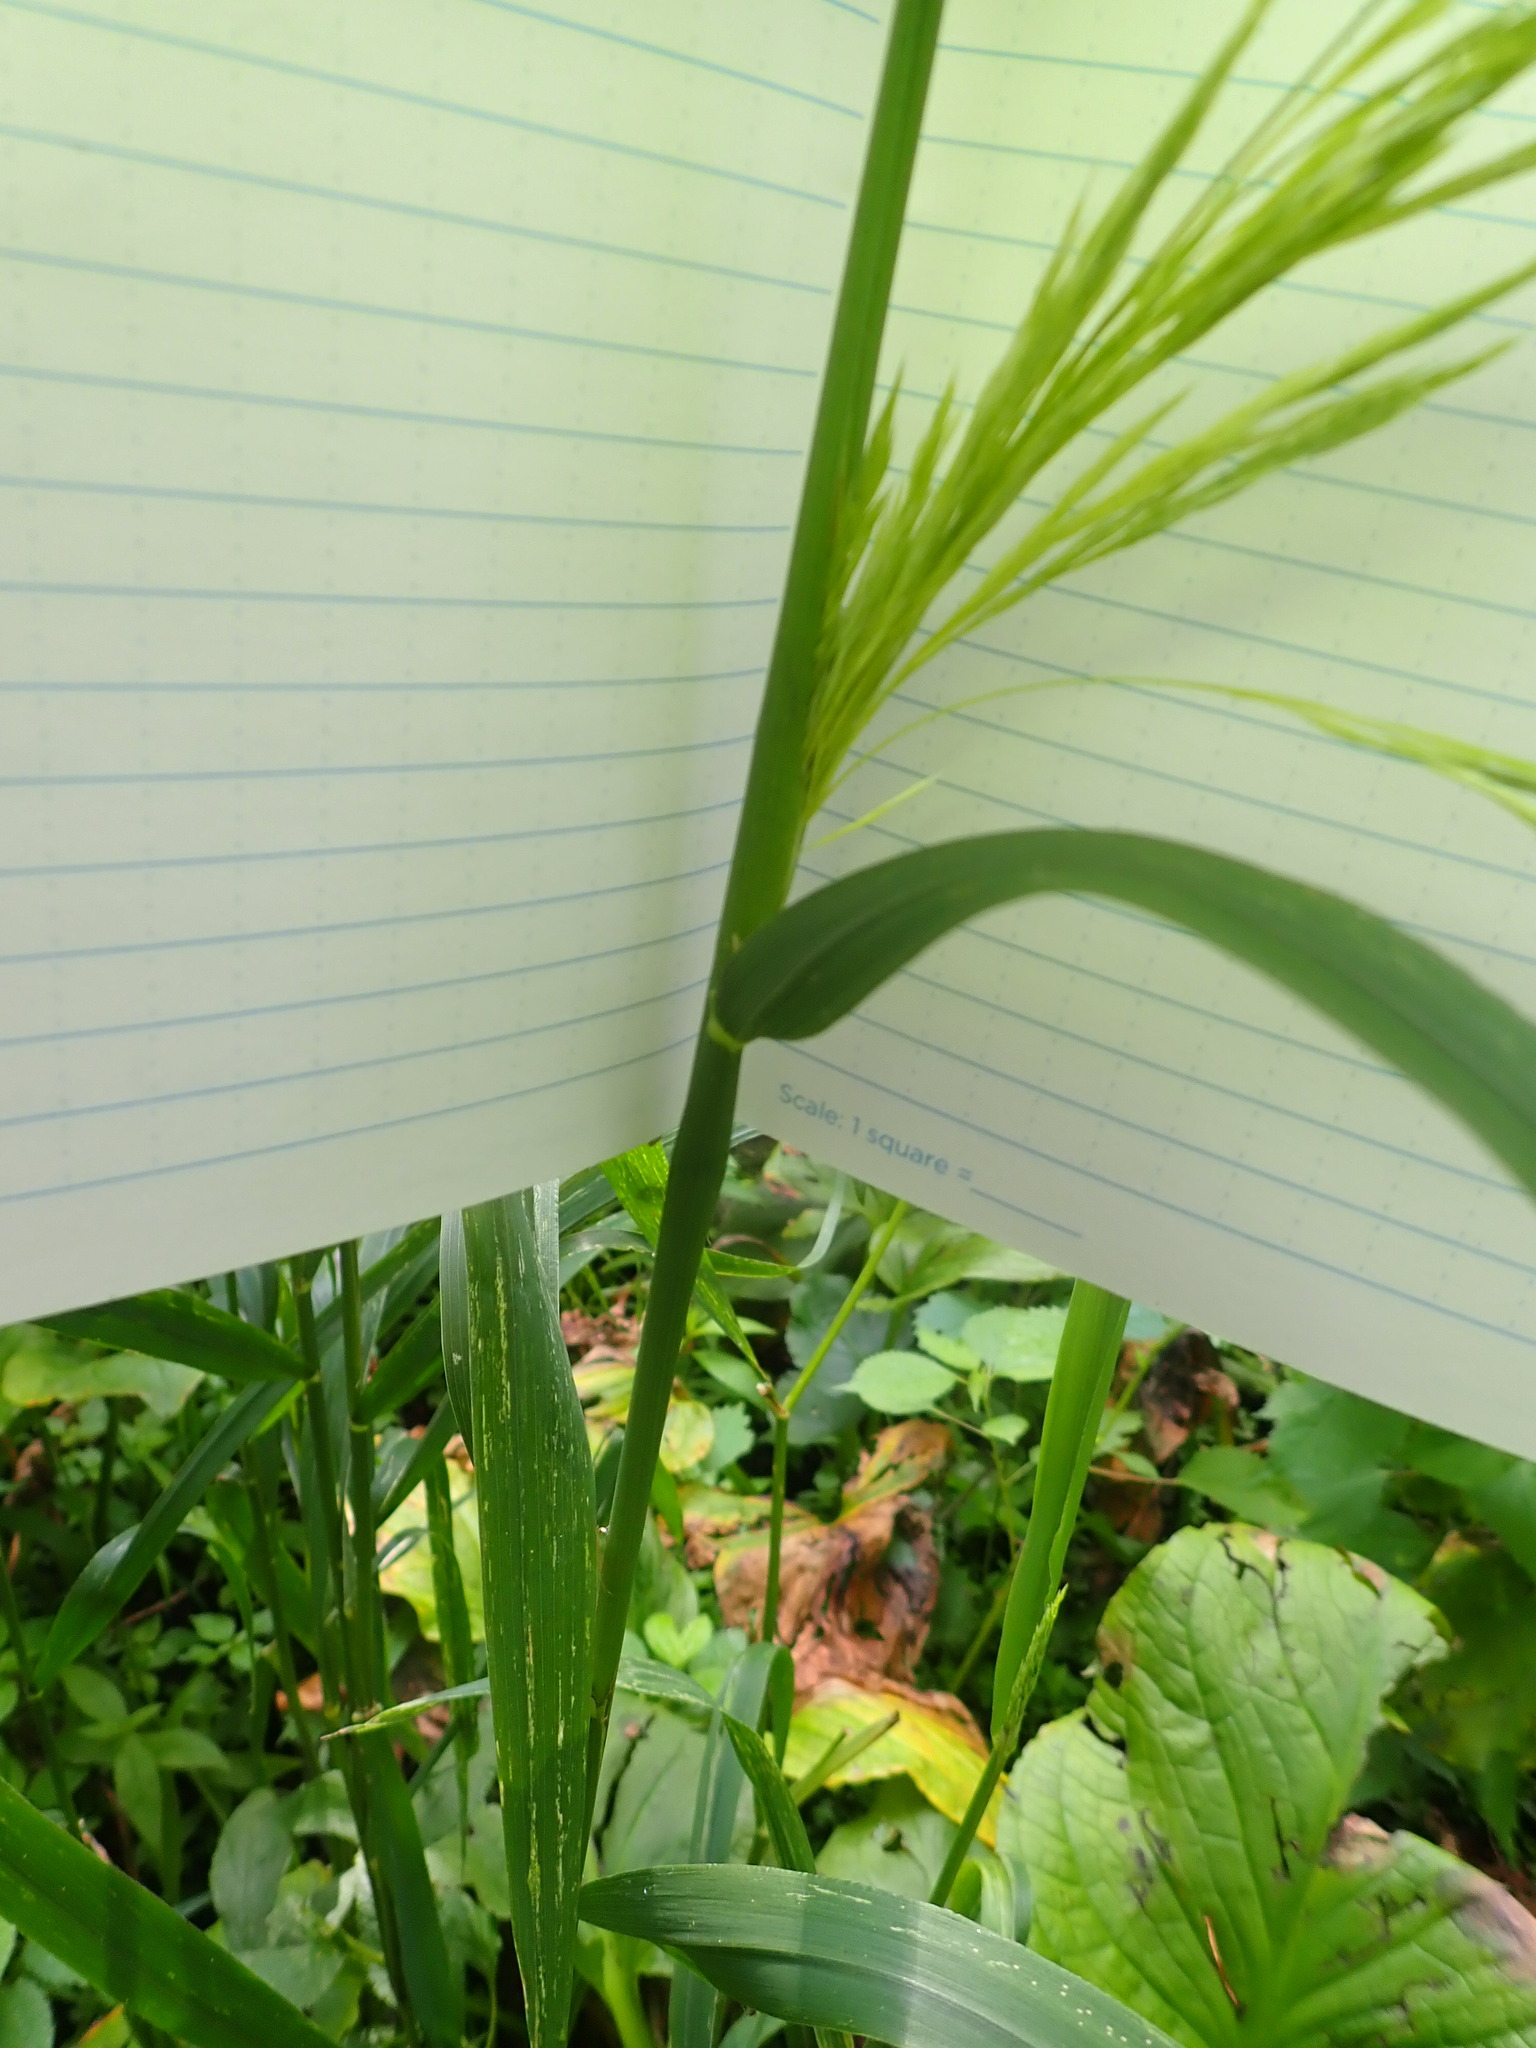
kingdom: Plantae
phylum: Tracheophyta
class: Liliopsida
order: Poales
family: Poaceae
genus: Cinna
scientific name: Cinna arundinacea
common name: Stout woodreed
